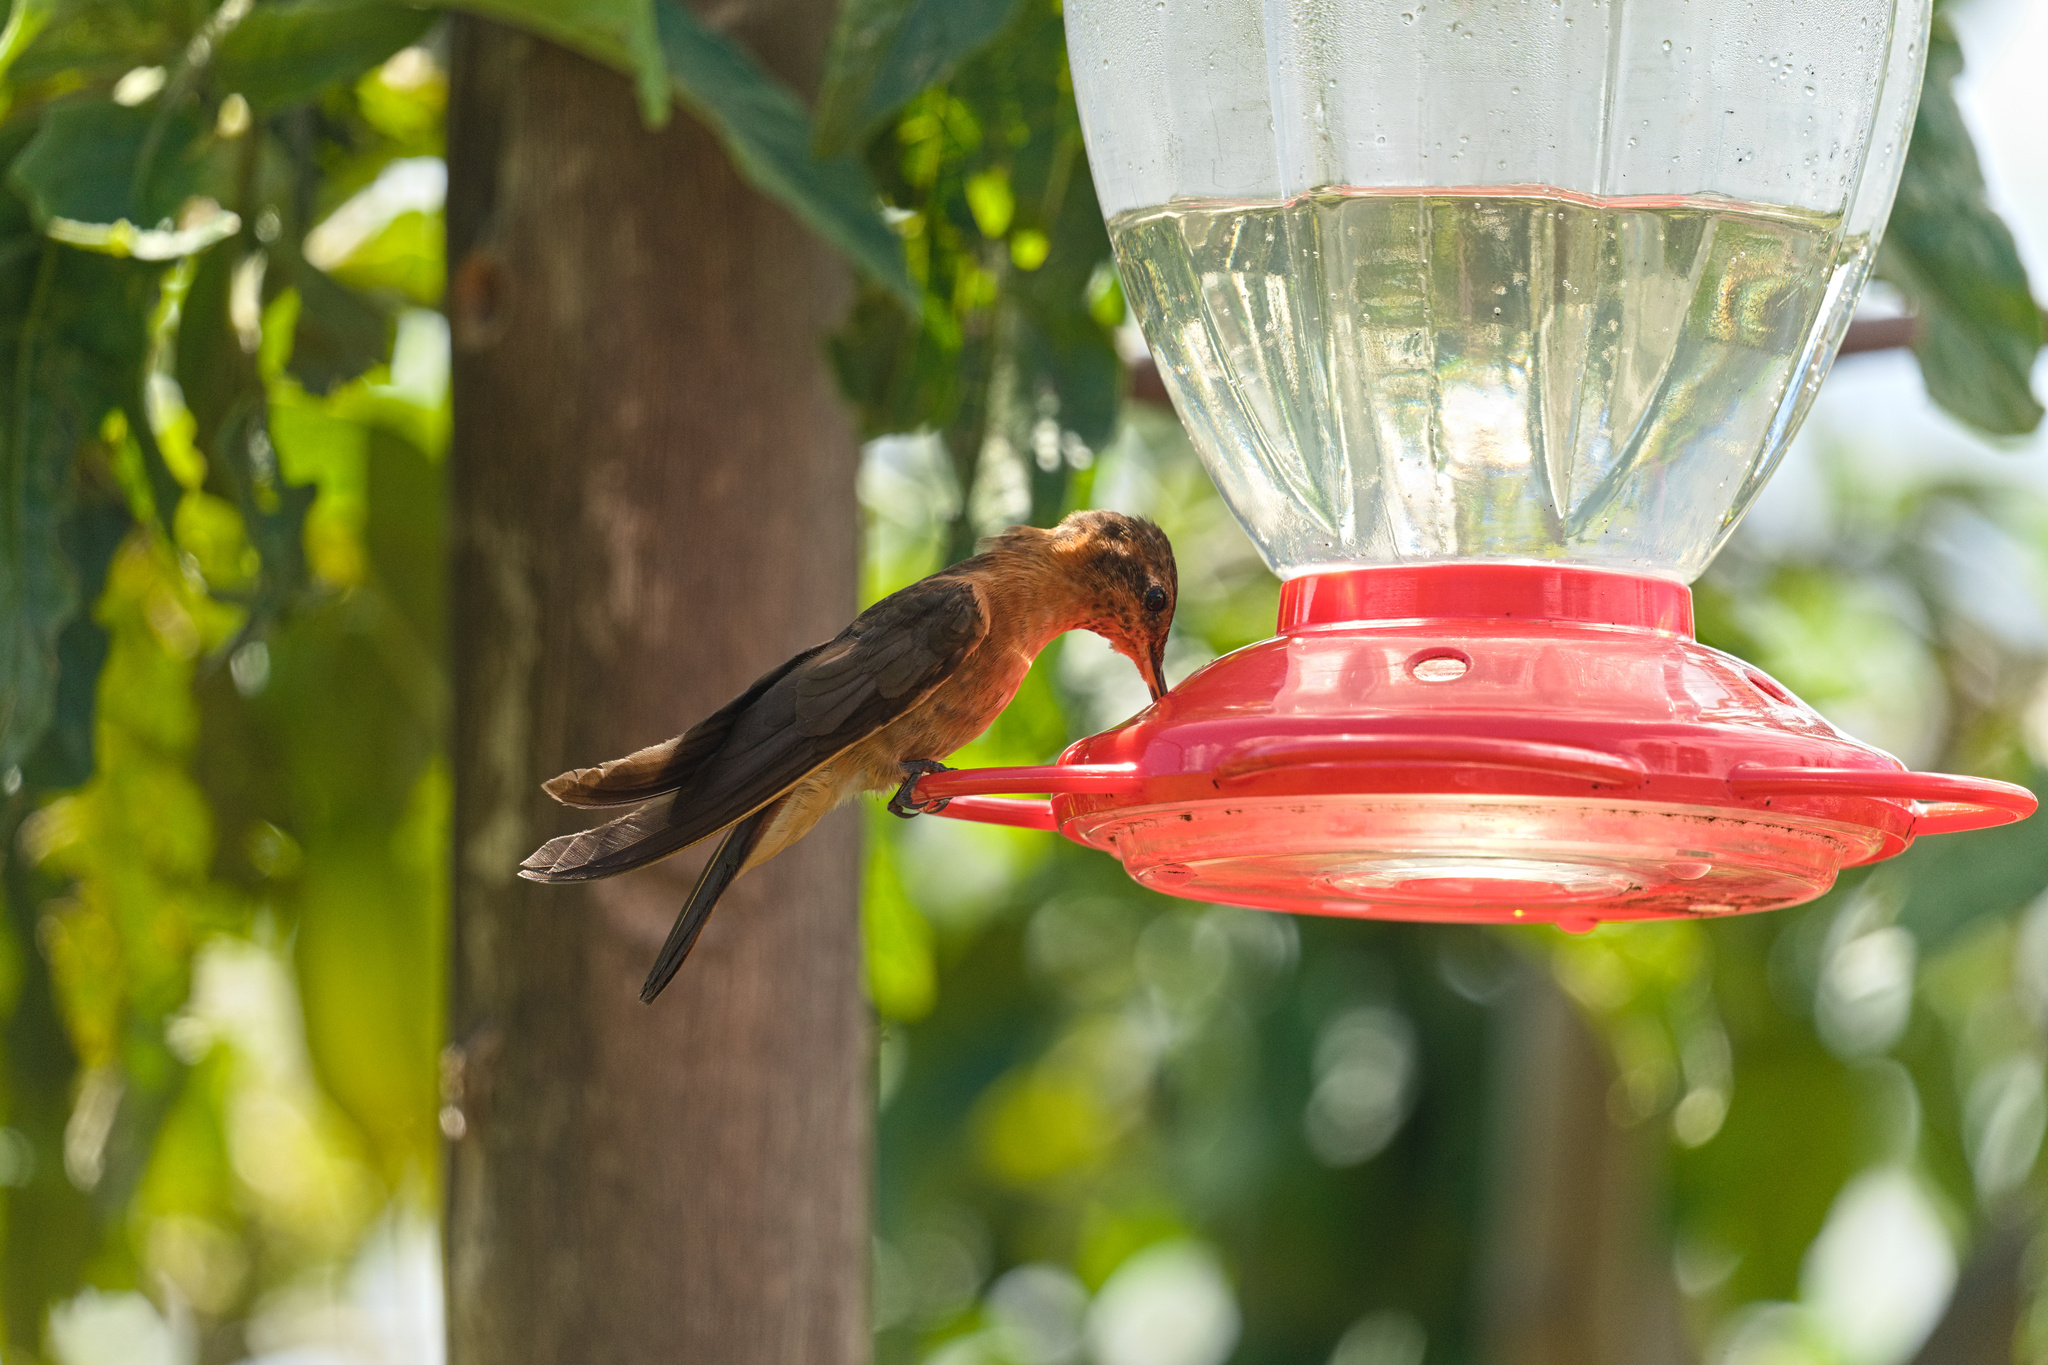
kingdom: Animalia
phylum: Chordata
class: Aves
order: Apodiformes
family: Trochilidae
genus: Aglaeactis
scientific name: Aglaeactis cupripennis
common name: Shining sunbeam
